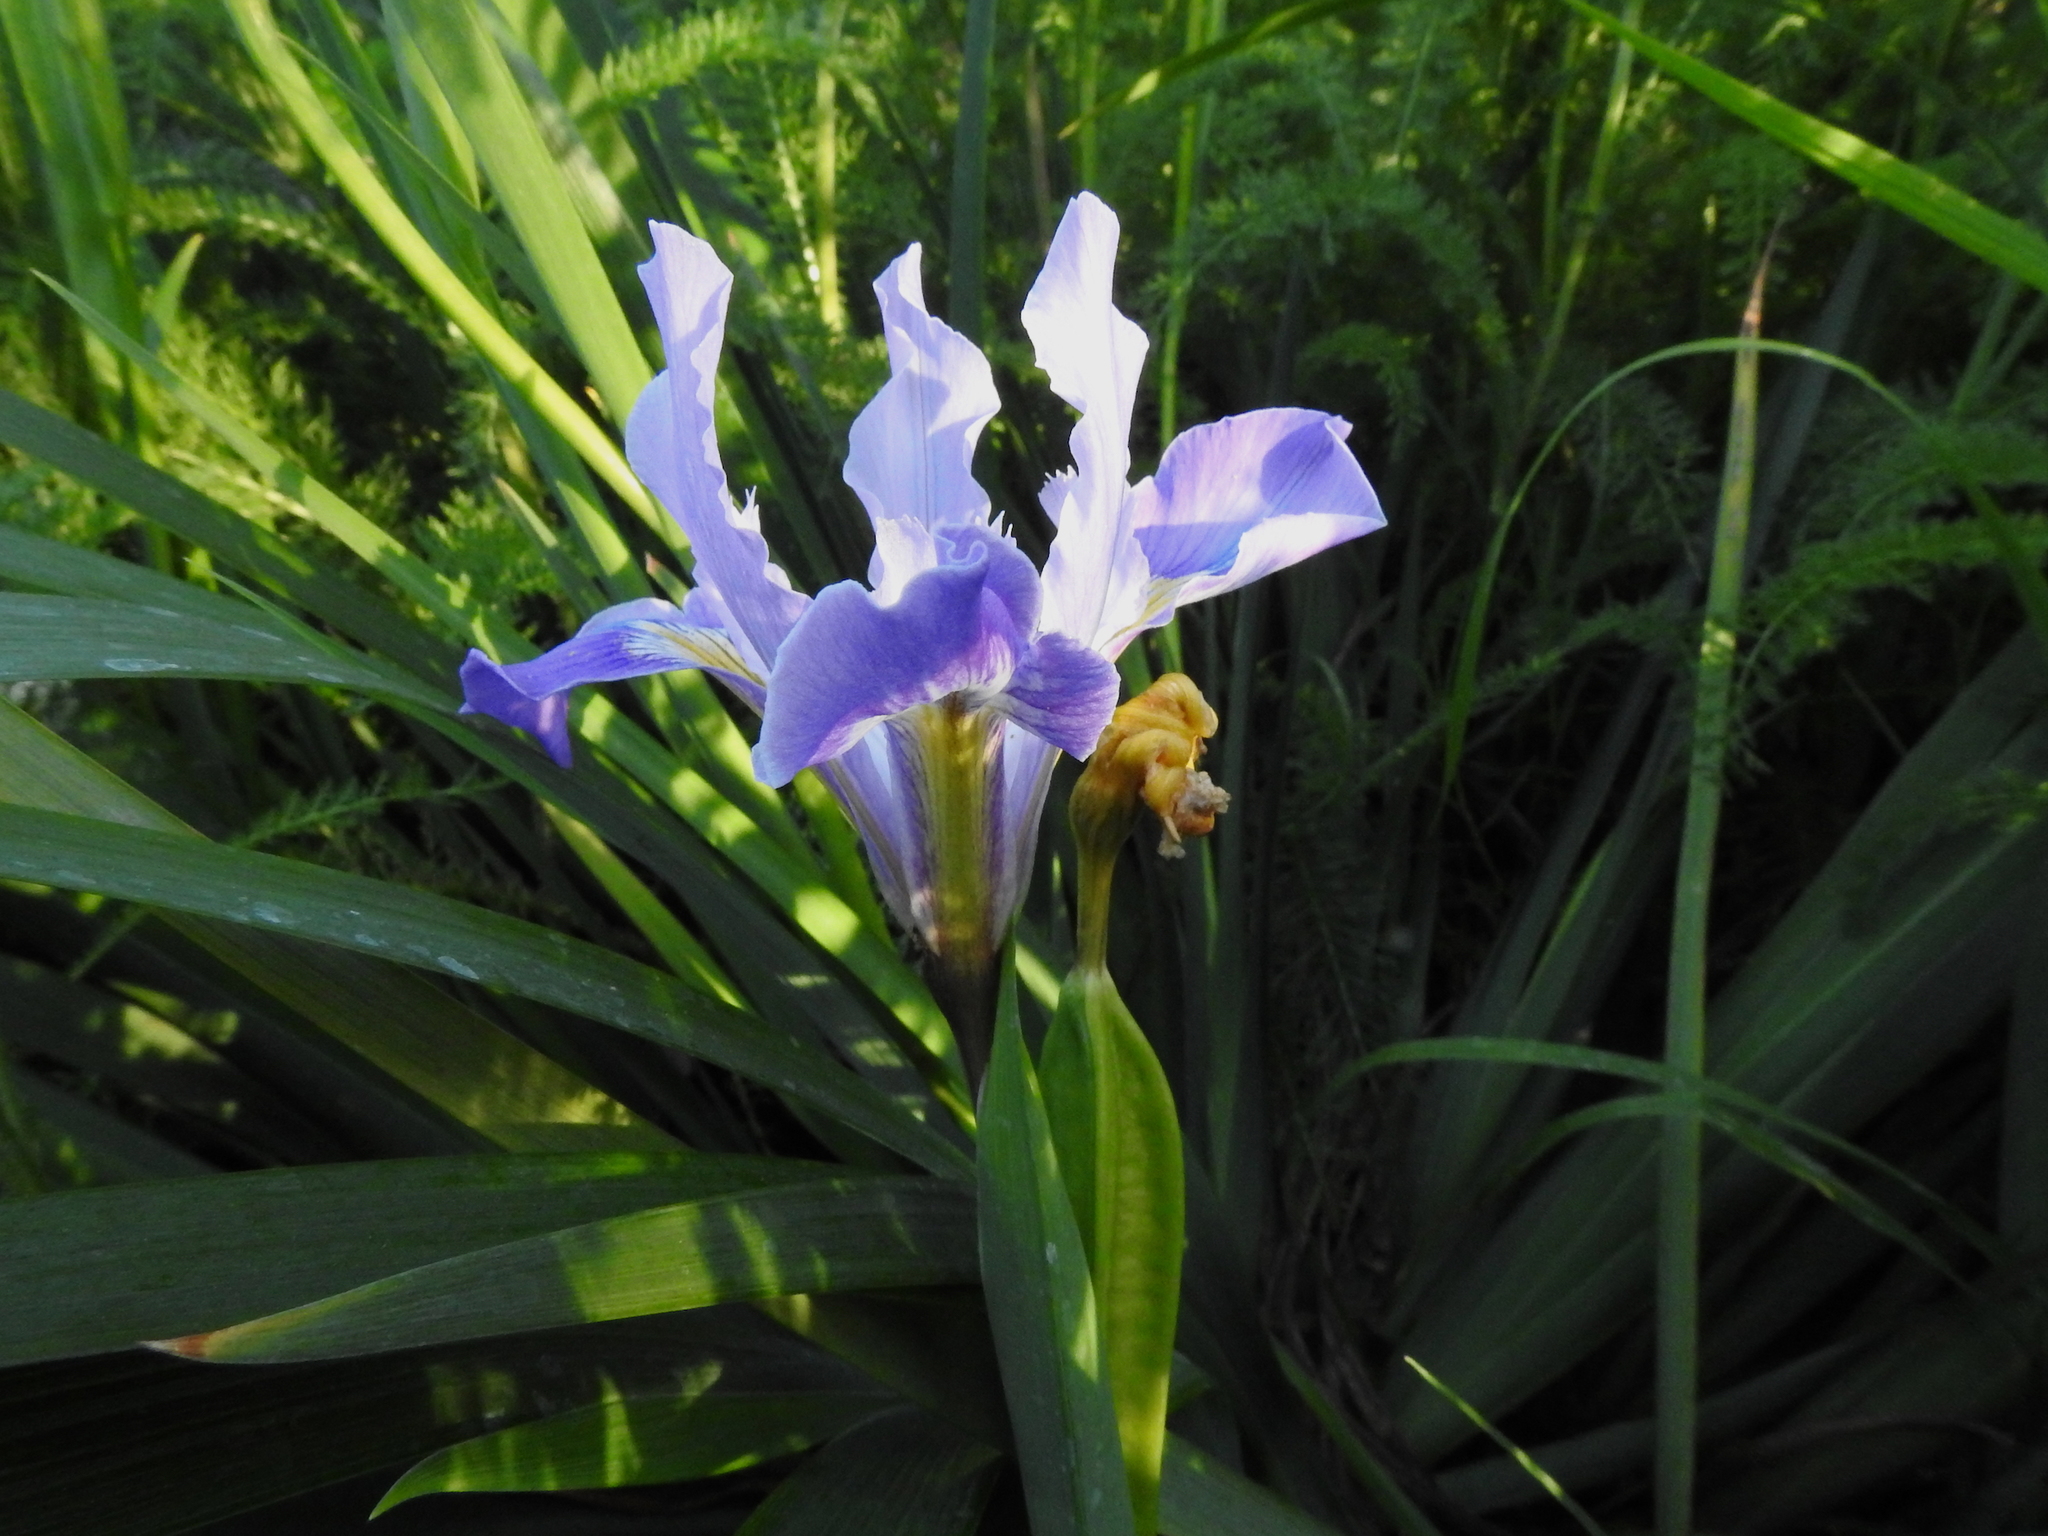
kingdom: Plantae
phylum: Tracheophyta
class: Liliopsida
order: Asparagales
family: Iridaceae
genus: Iris
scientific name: Iris douglasiana
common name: Marin iris
